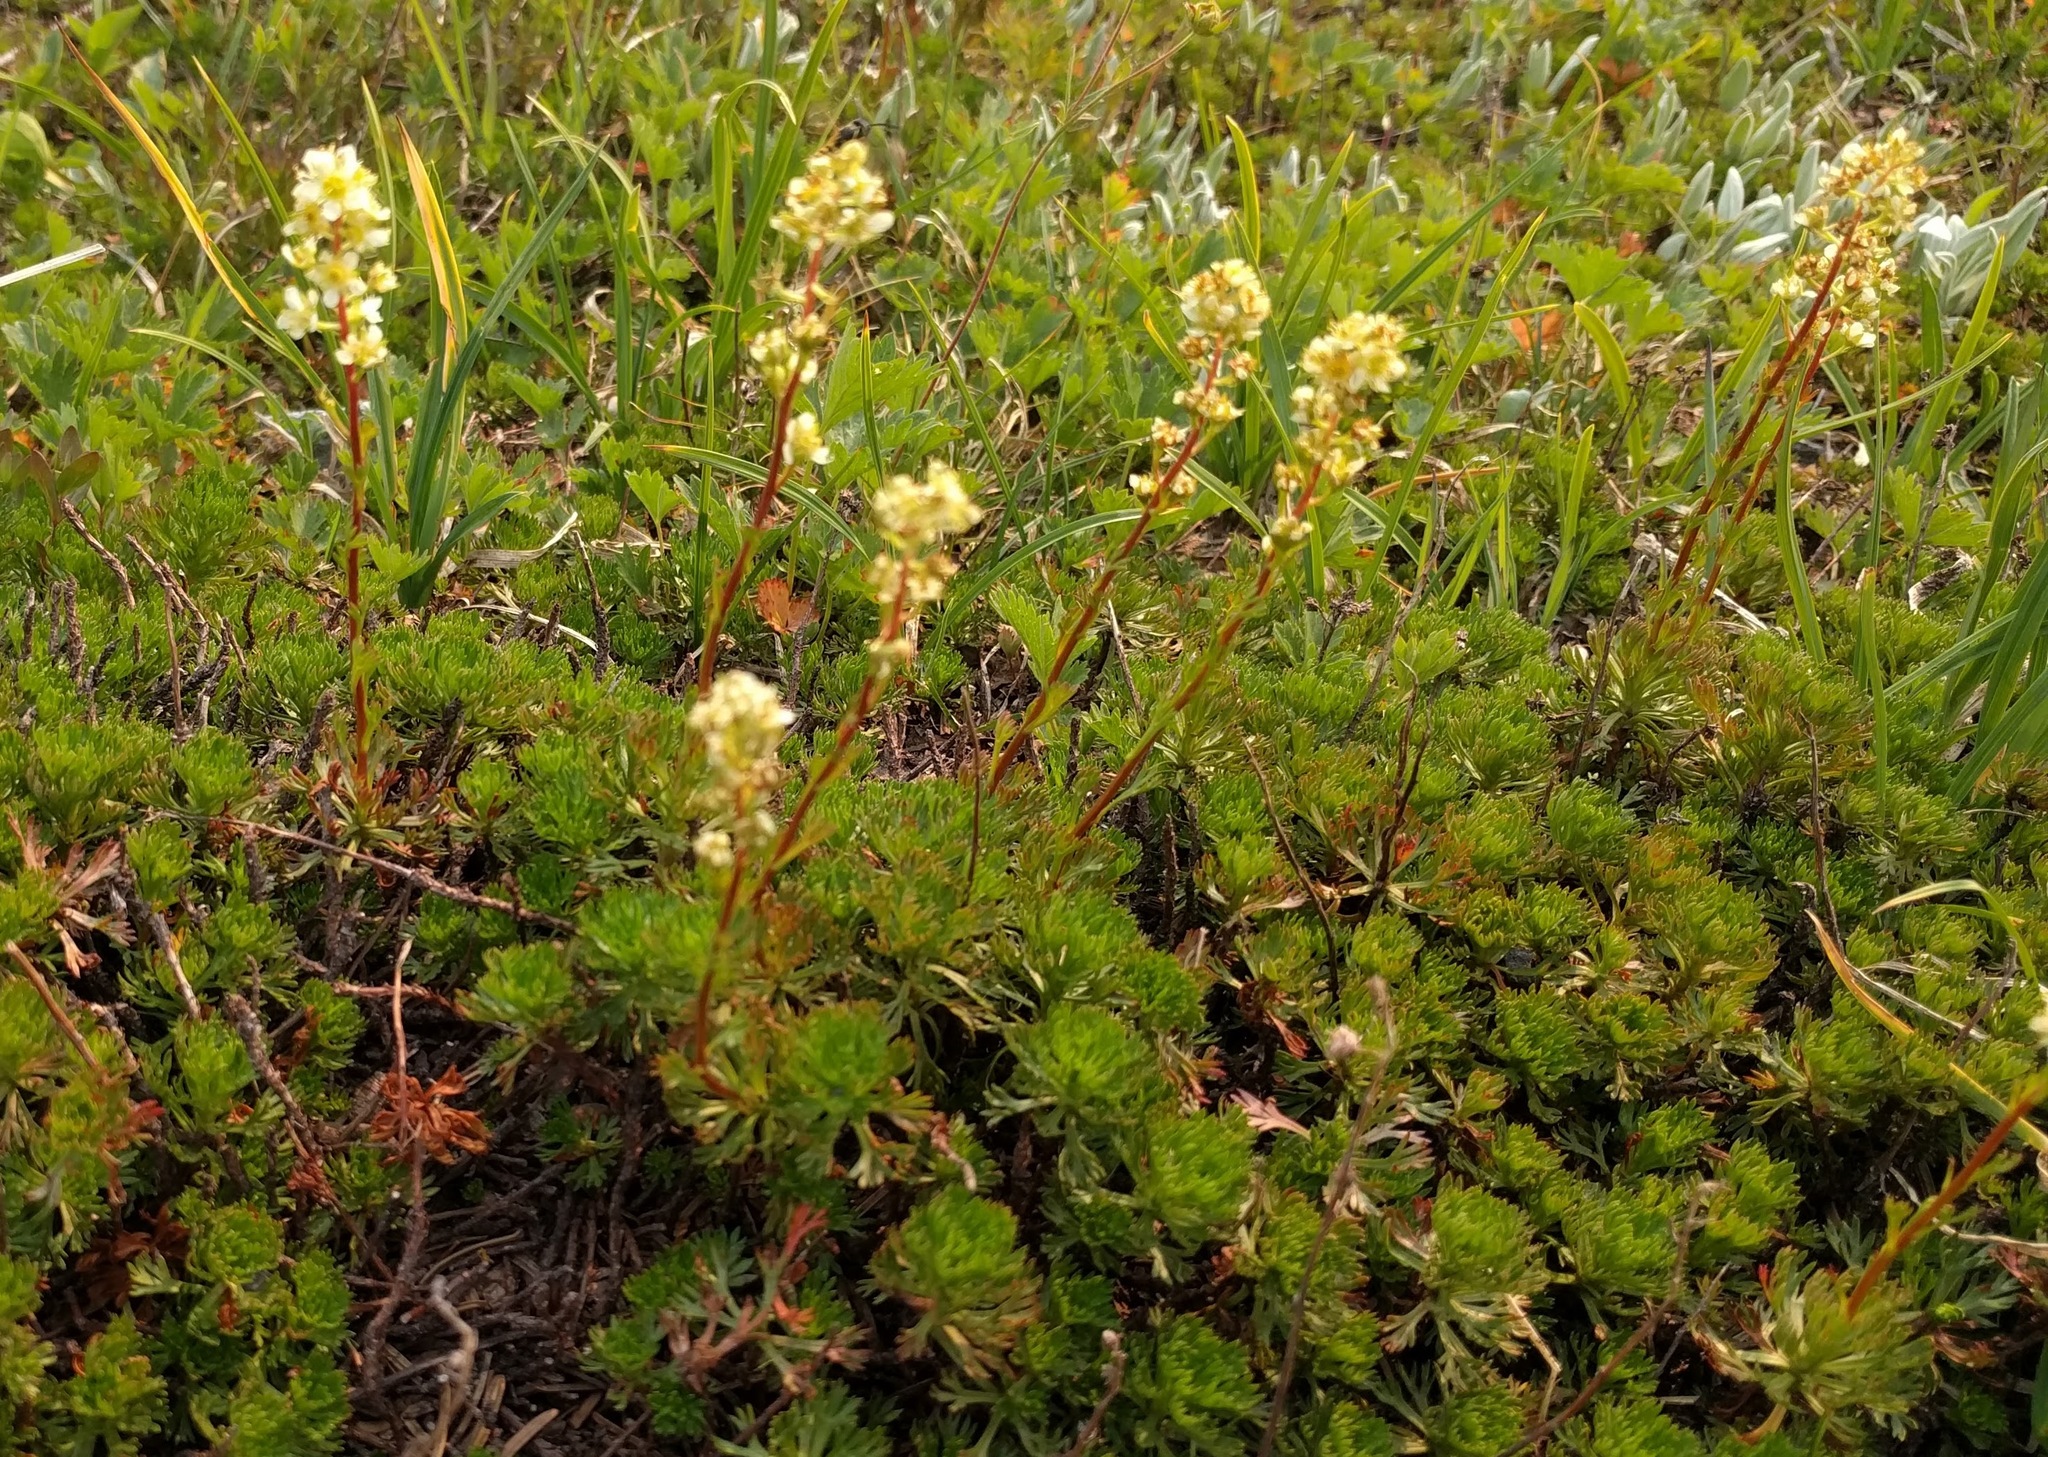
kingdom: Plantae
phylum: Tracheophyta
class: Magnoliopsida
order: Rosales
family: Rosaceae
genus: Luetkea
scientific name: Luetkea pectinata
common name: Partridgefoot
